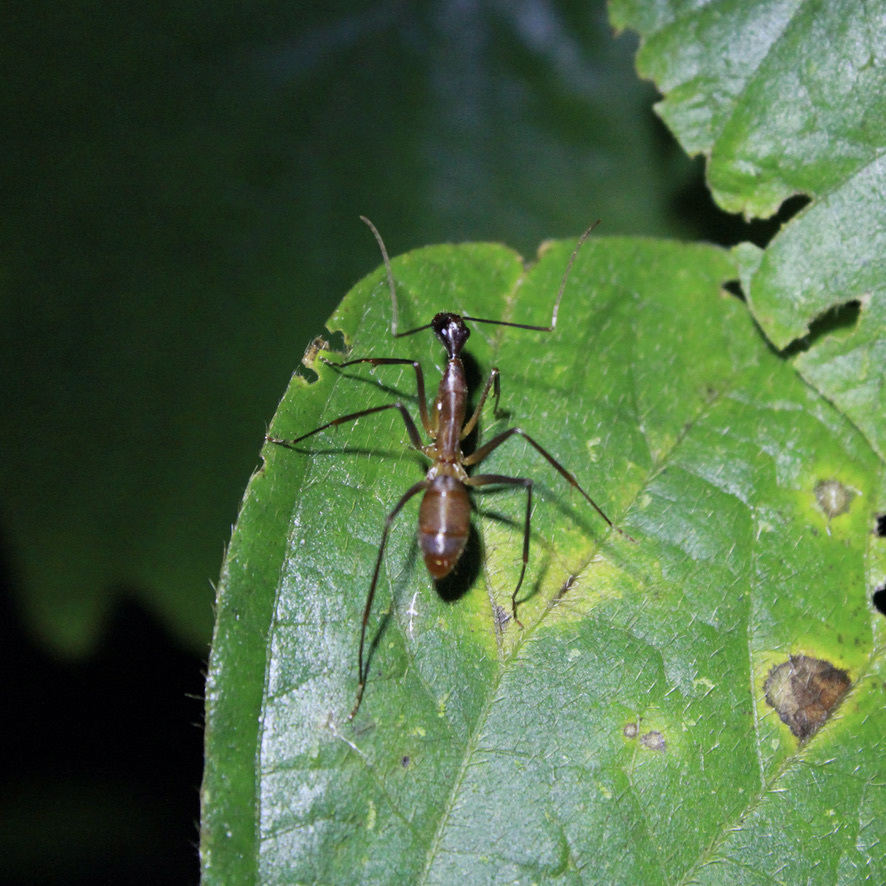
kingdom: Animalia
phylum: Arthropoda
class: Insecta
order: Hymenoptera
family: Formicidae
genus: Camponotus
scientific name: Camponotus ager
